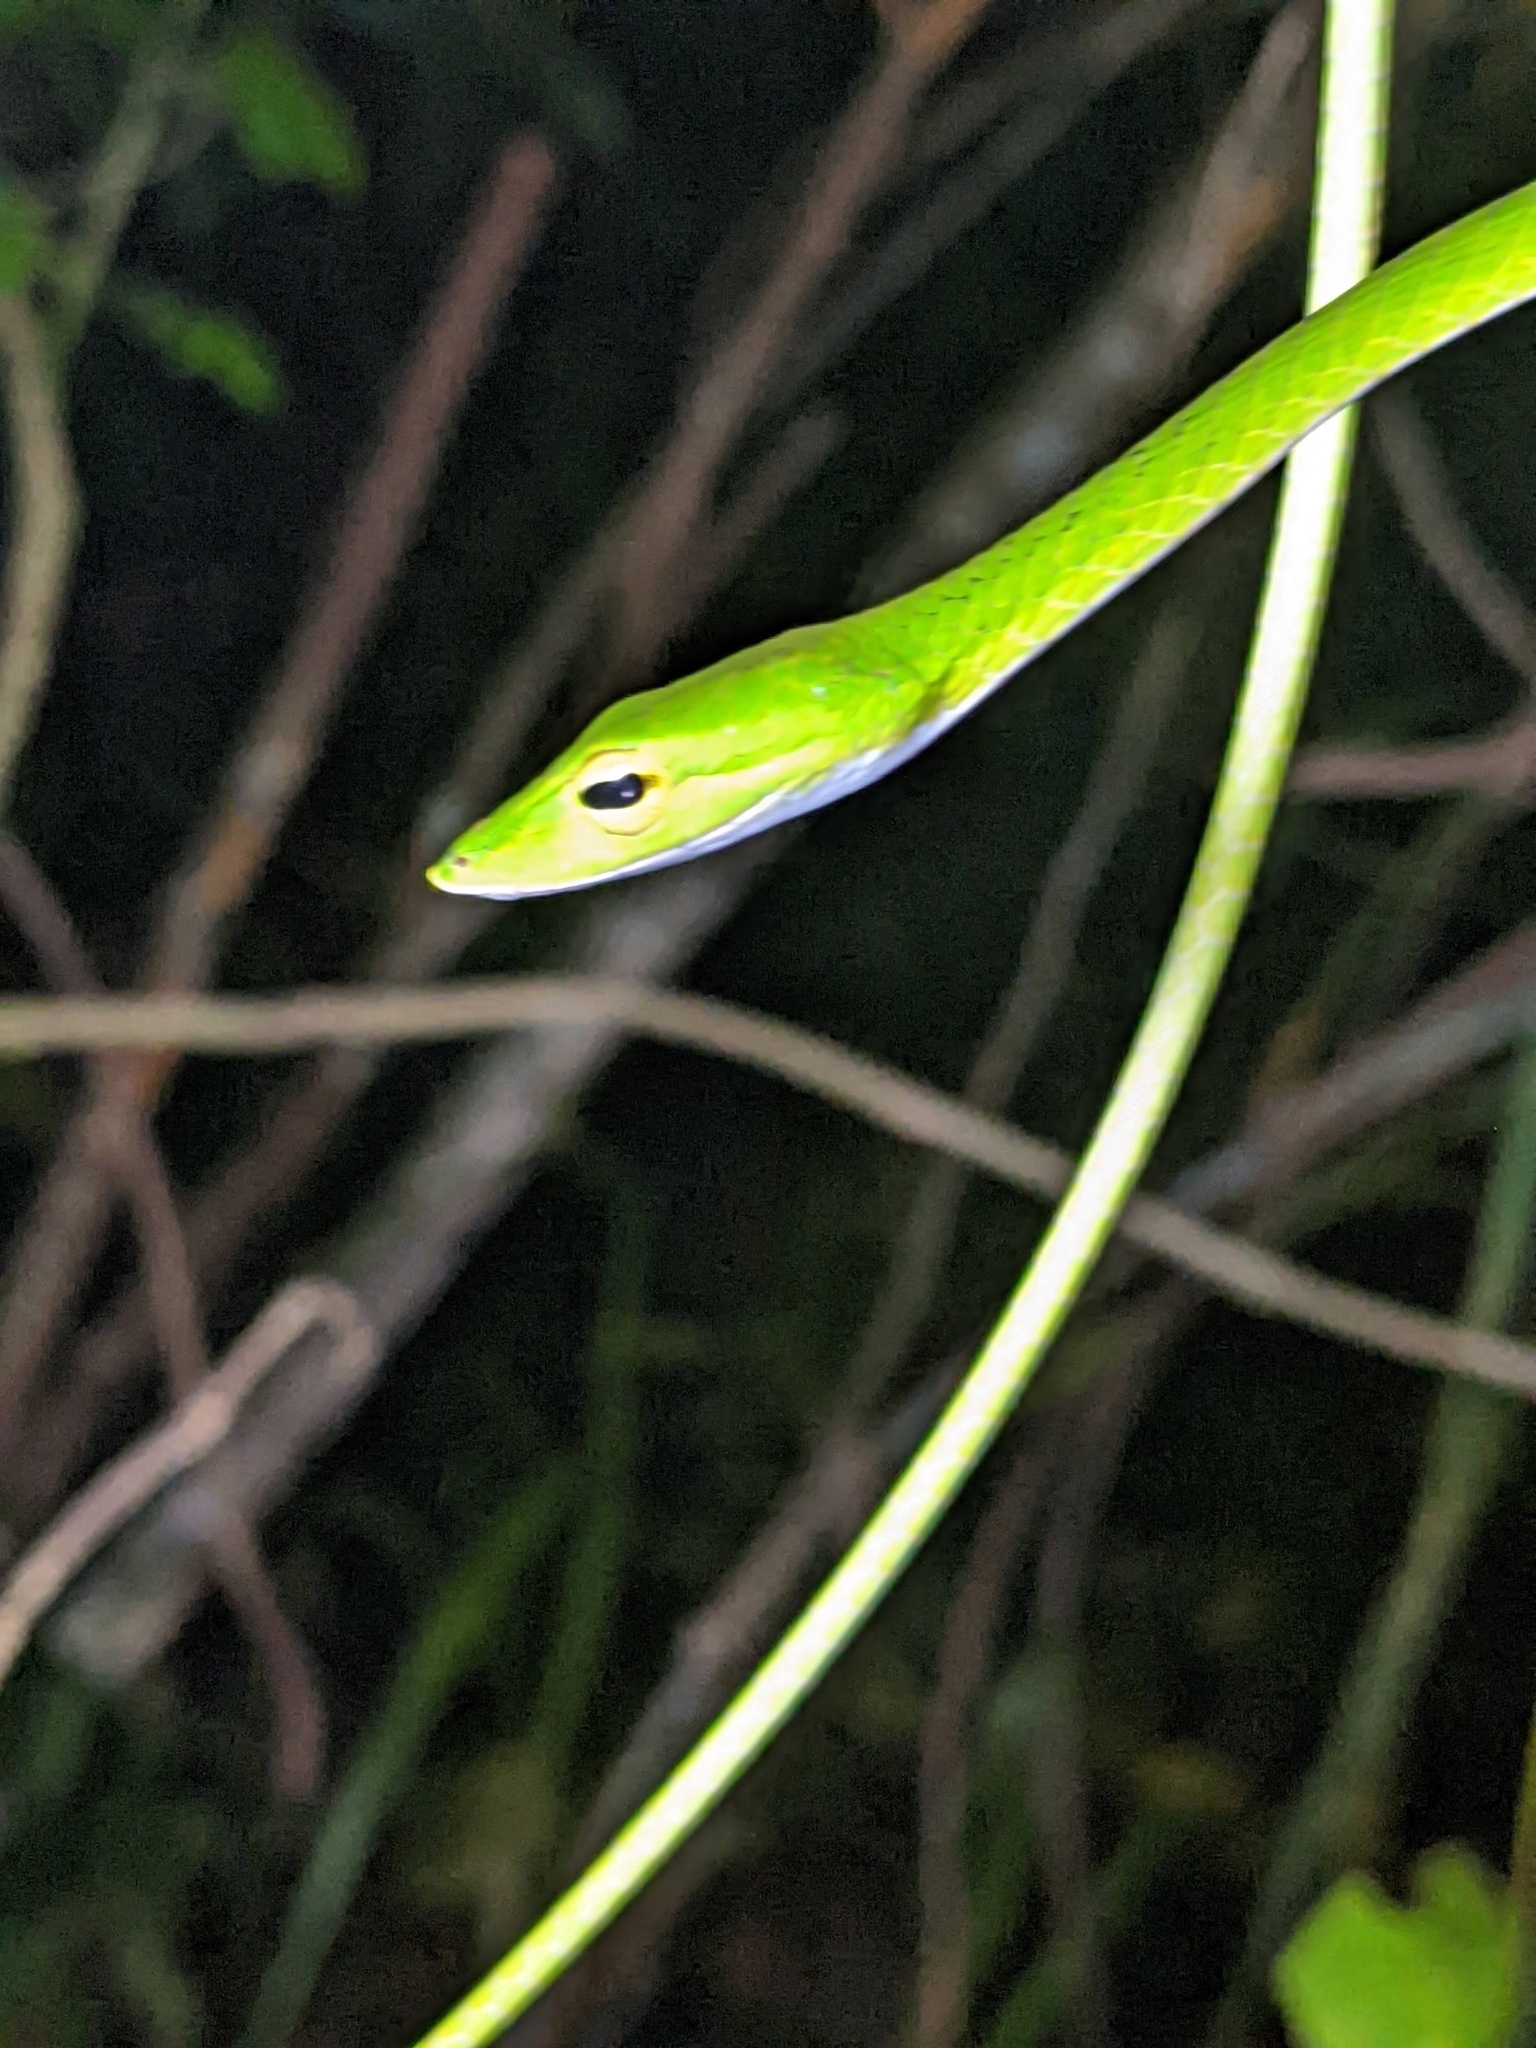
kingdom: Animalia
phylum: Chordata
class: Squamata
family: Colubridae
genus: Ahaetulla
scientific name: Ahaetulla mycterizans
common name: Malayan whip snake
